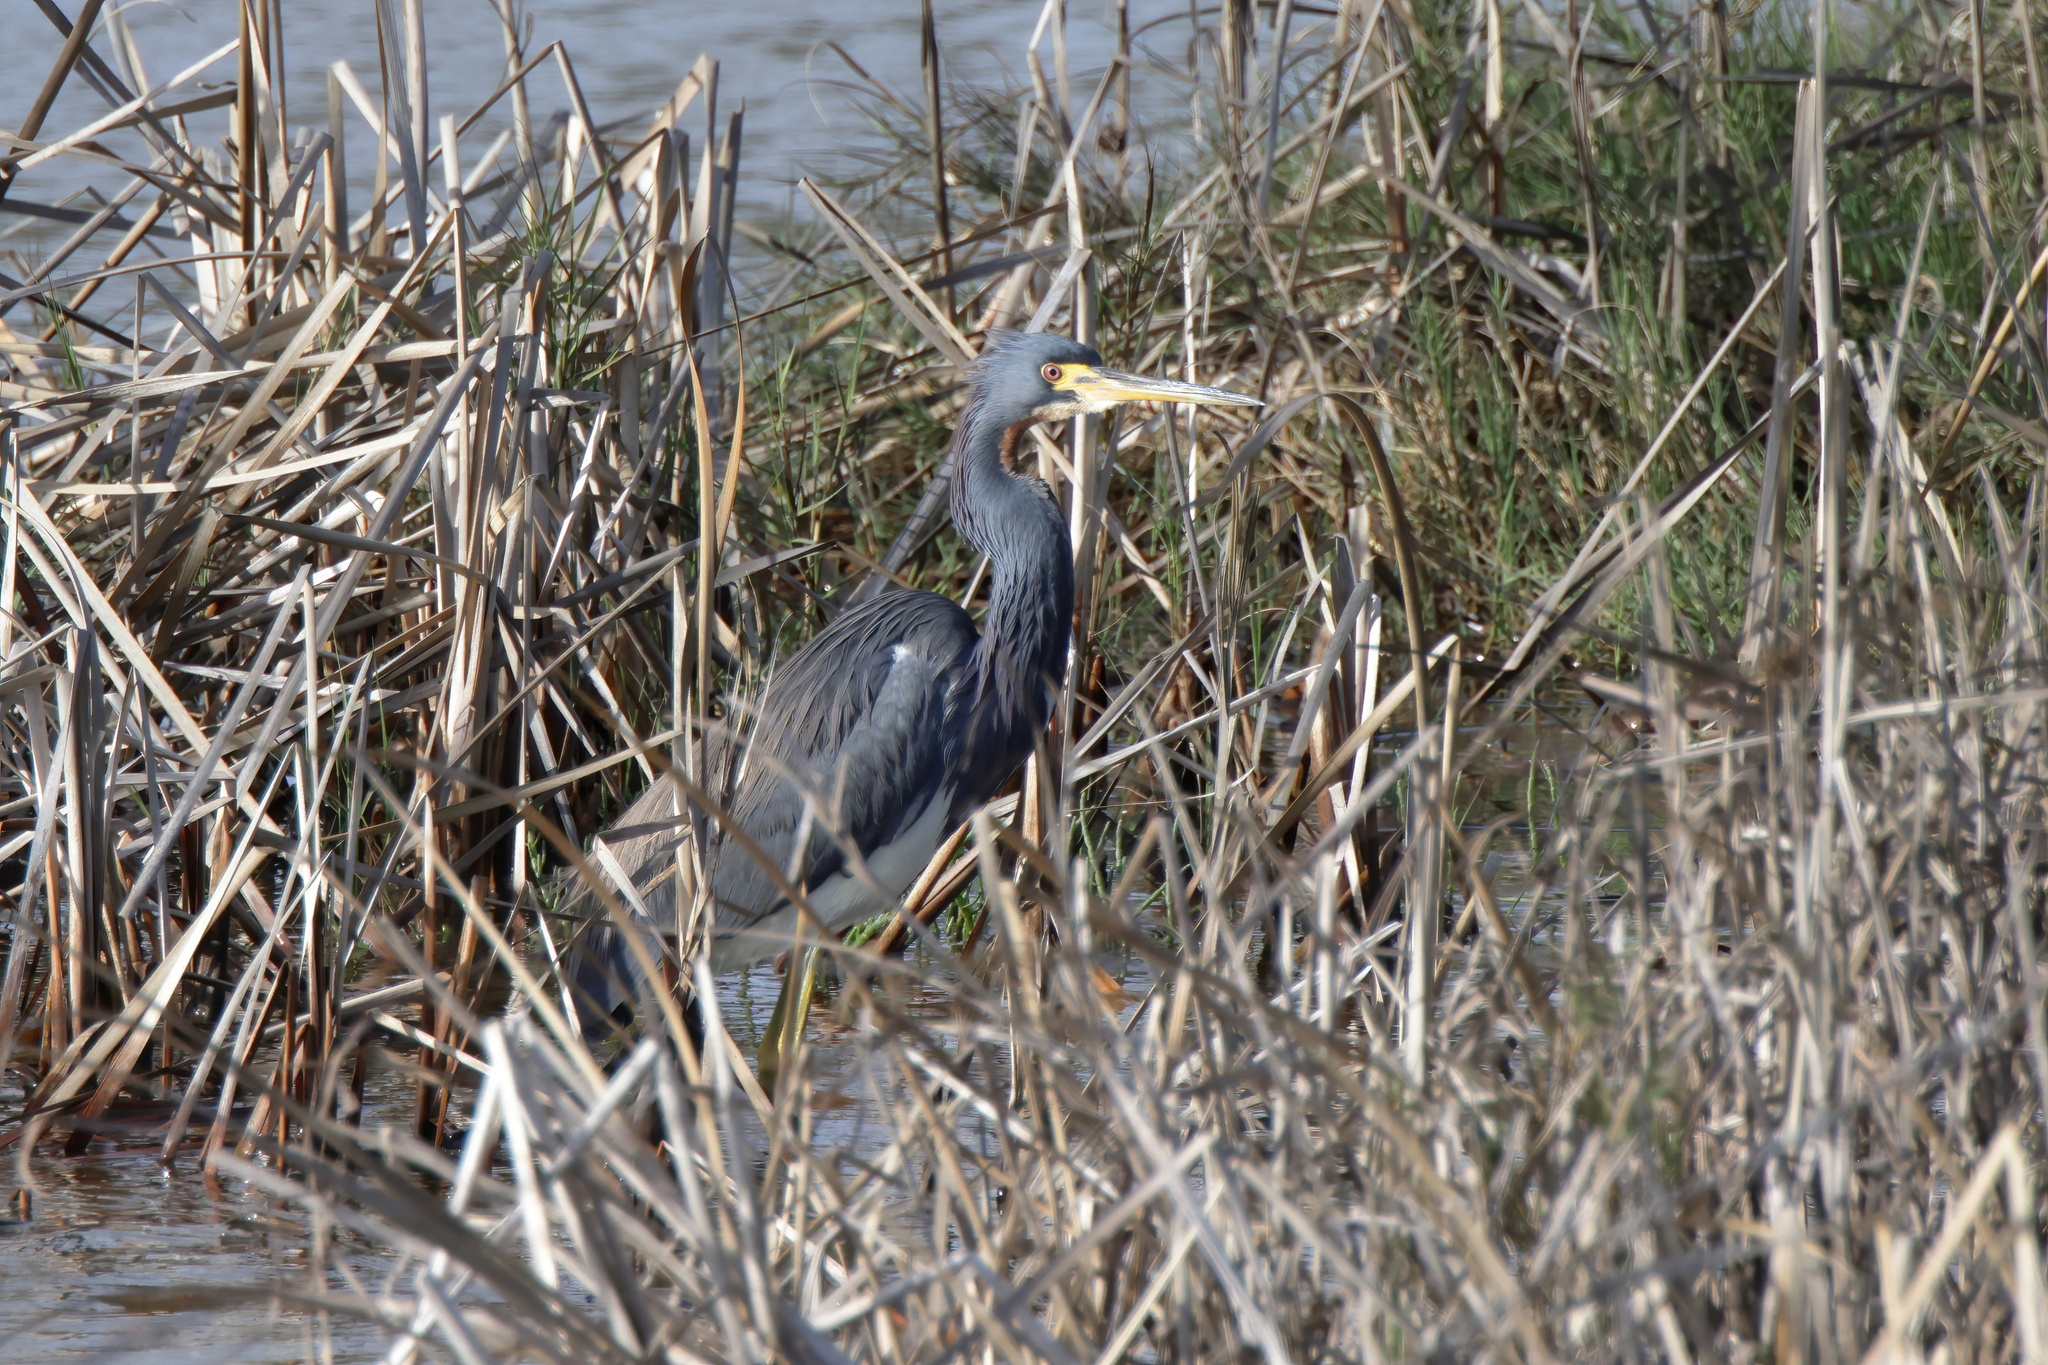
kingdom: Animalia
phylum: Chordata
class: Aves
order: Pelecaniformes
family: Ardeidae
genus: Egretta
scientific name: Egretta tricolor
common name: Tricolored heron
